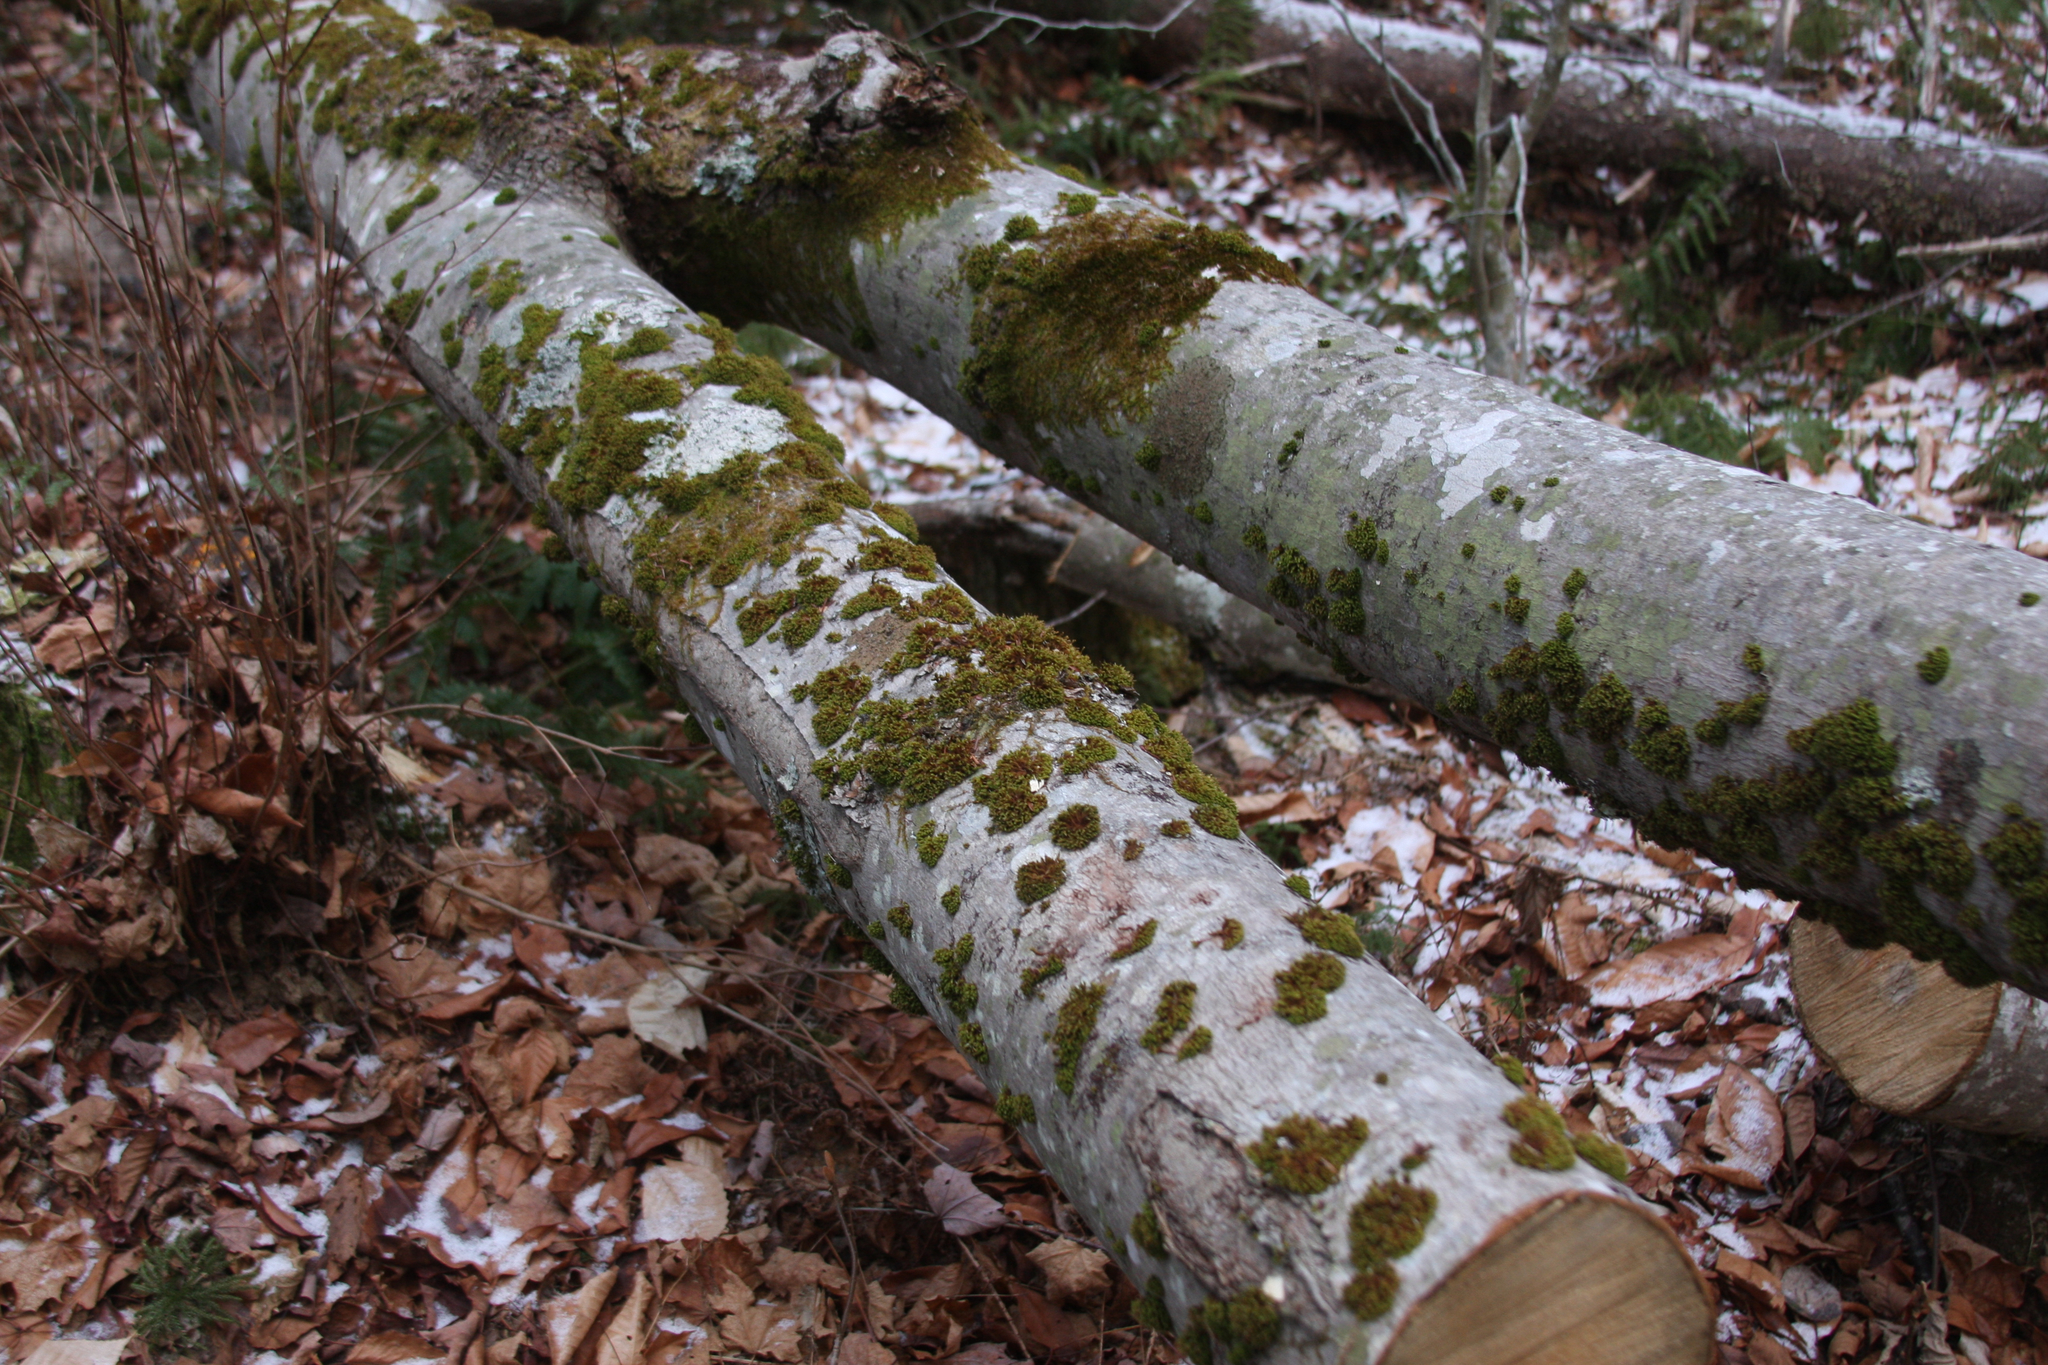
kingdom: Plantae
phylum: Bryophyta
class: Bryopsida
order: Orthotrichales
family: Orthotrichaceae
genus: Ulota
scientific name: Ulota crispa
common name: Crisped pincushion moss
